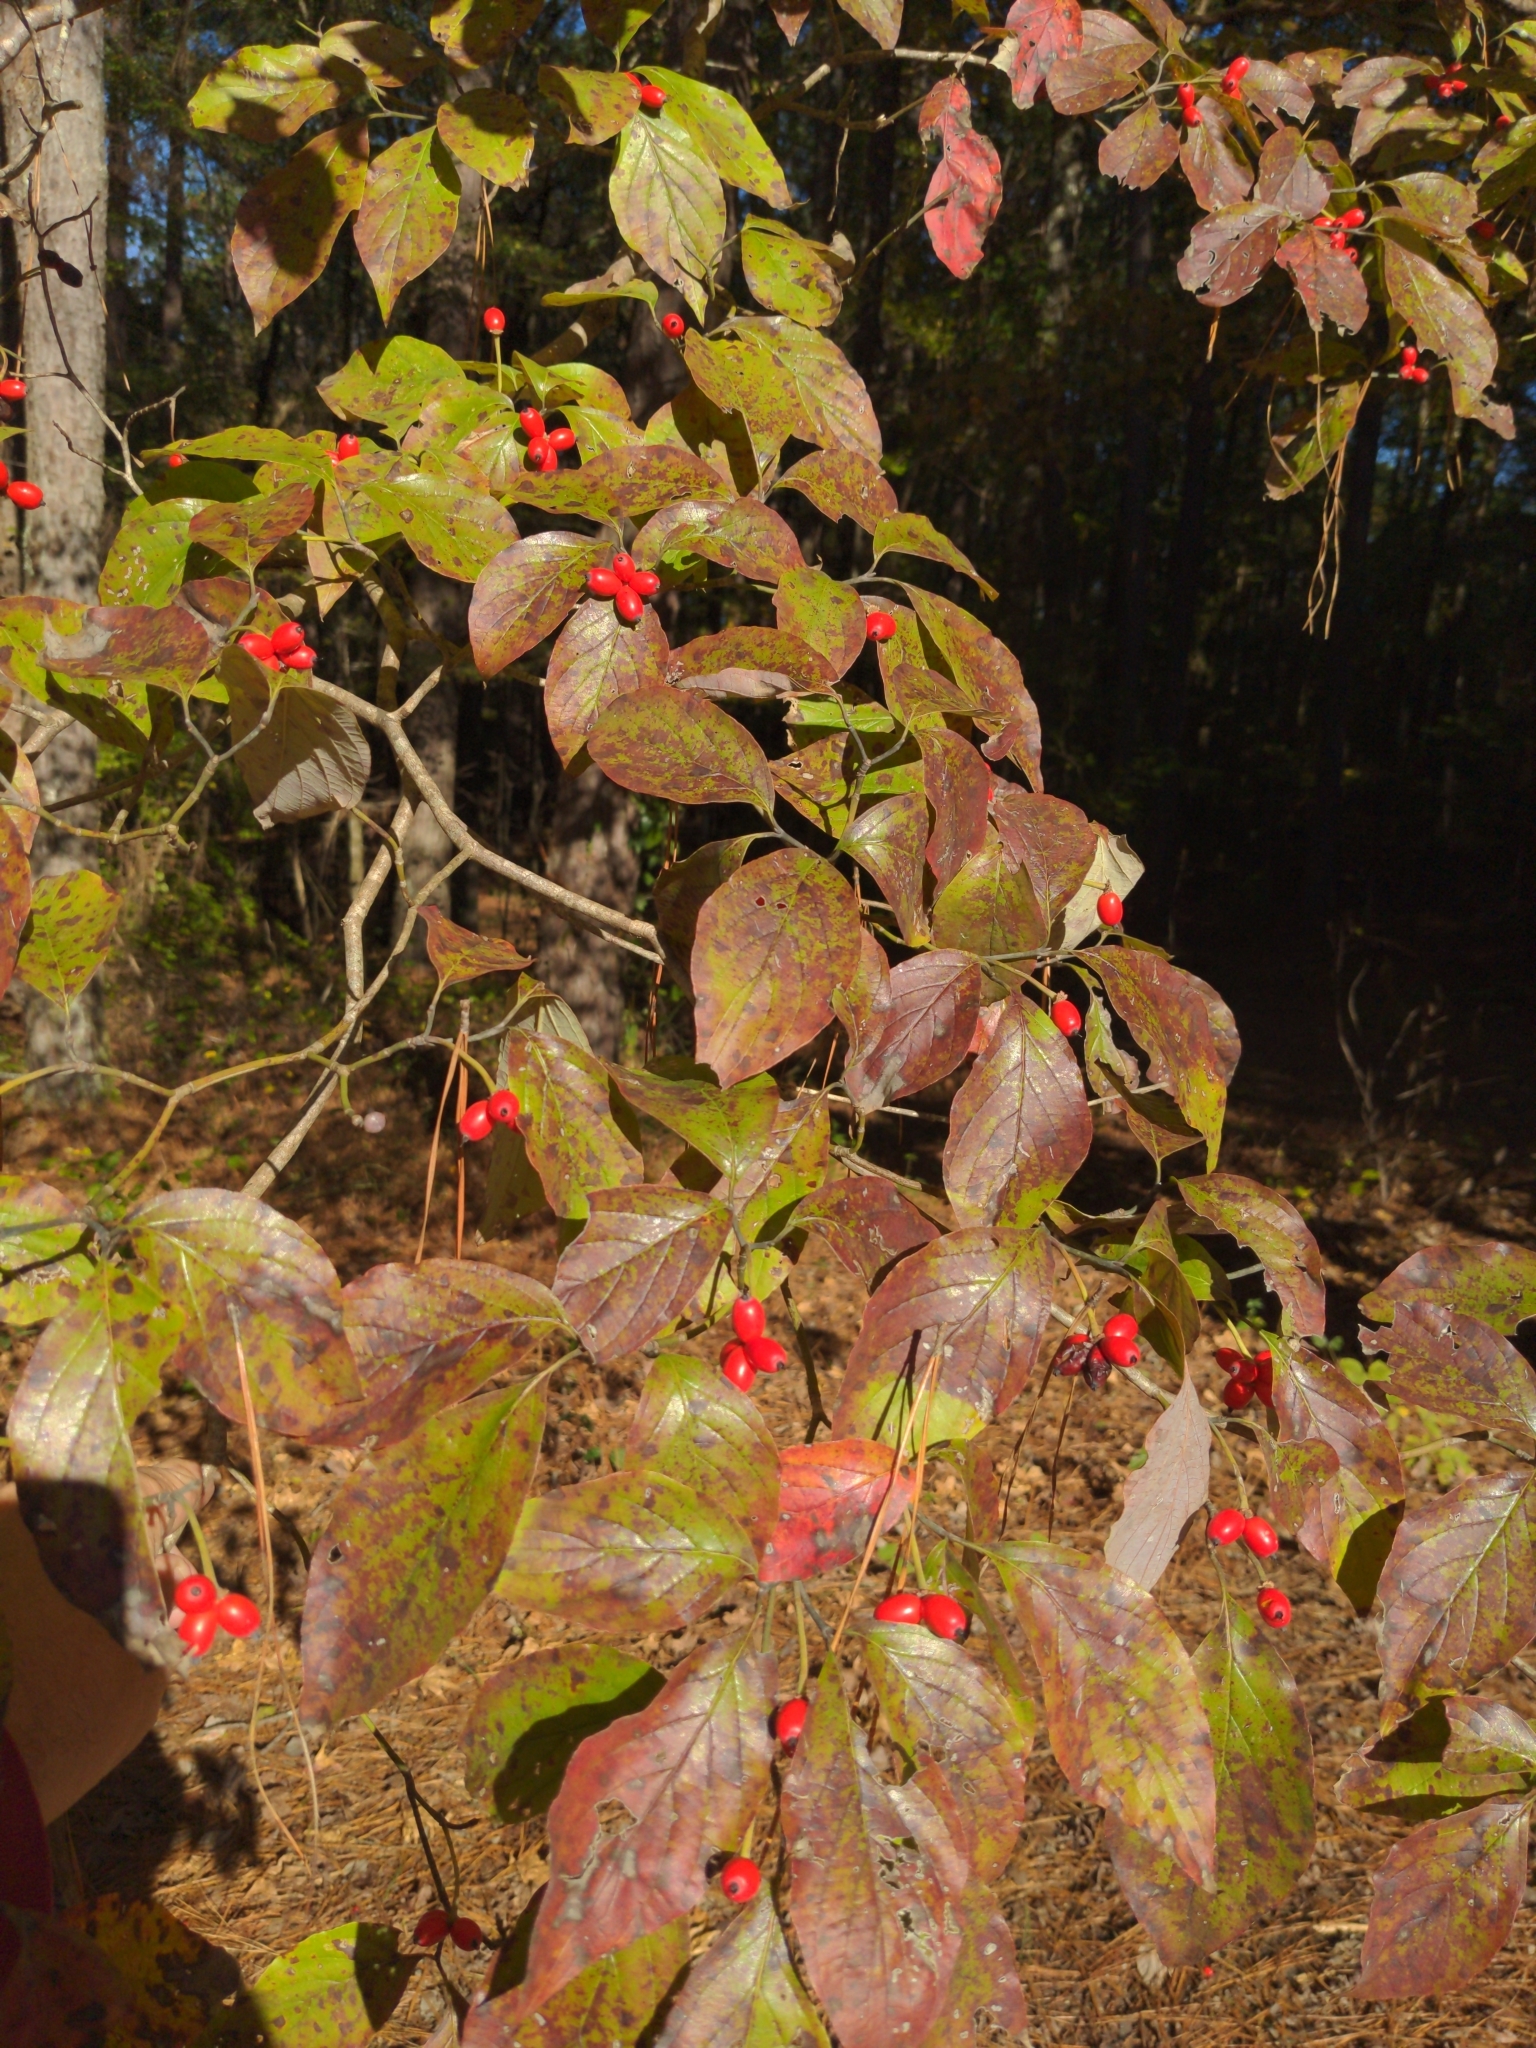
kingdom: Plantae
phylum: Tracheophyta
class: Magnoliopsida
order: Cornales
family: Cornaceae
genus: Cornus
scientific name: Cornus florida
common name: Flowering dogwood
